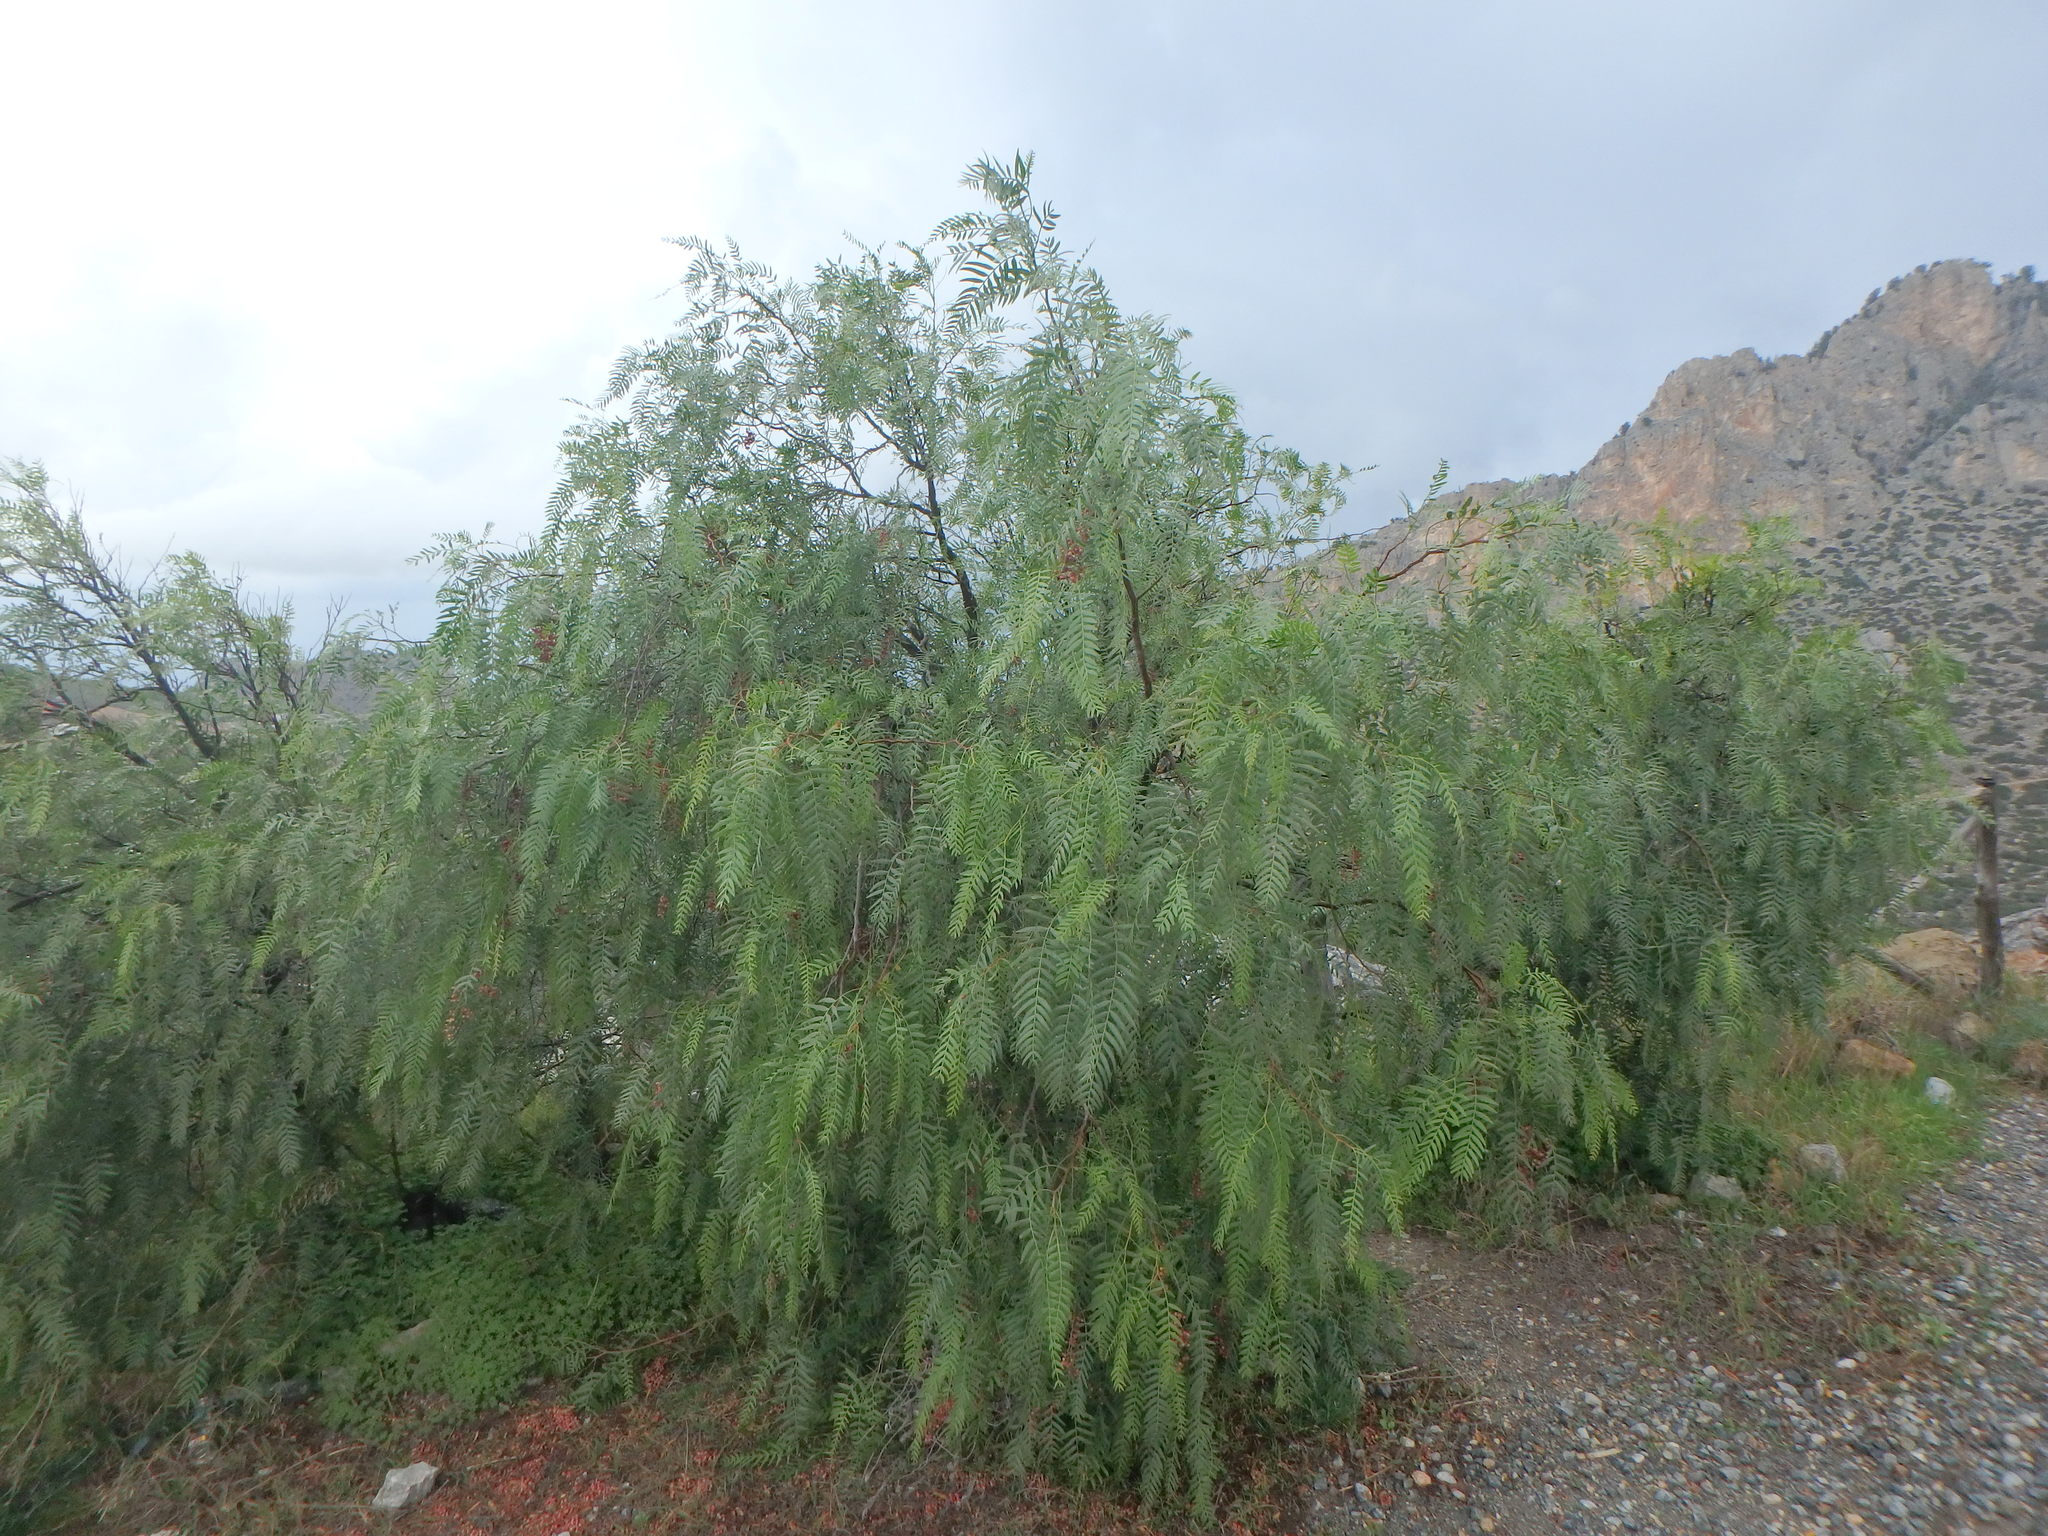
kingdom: Plantae
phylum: Tracheophyta
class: Magnoliopsida
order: Sapindales
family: Anacardiaceae
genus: Schinus
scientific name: Schinus molle
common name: Peruvian peppertree
